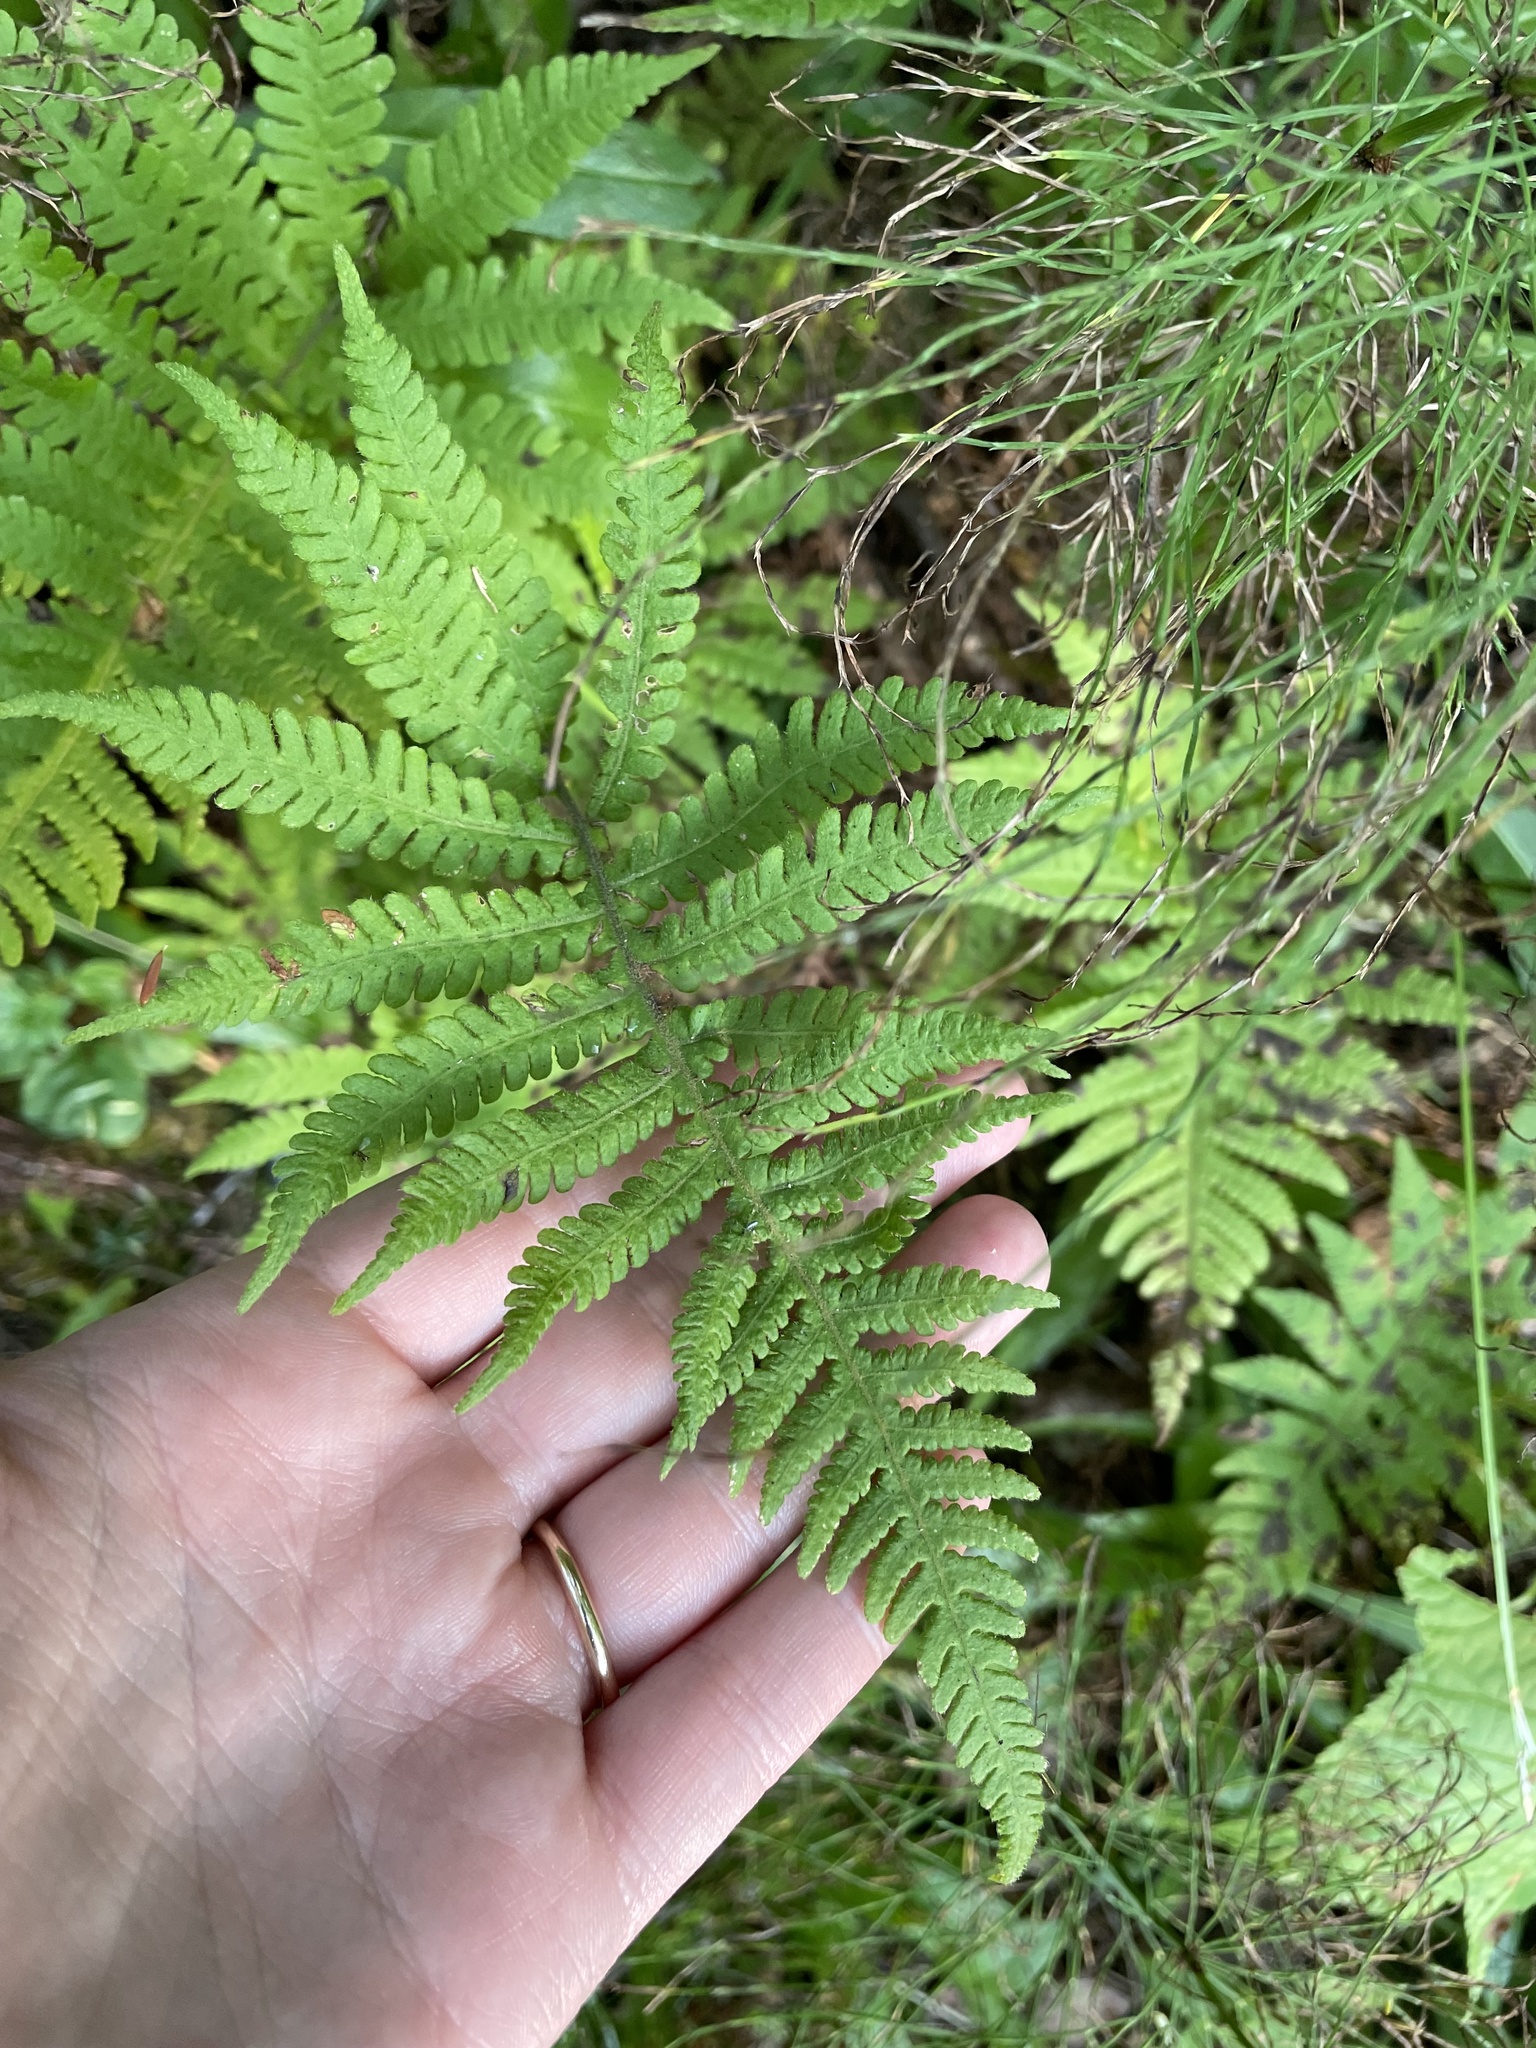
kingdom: Plantae
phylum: Tracheophyta
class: Polypodiopsida
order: Polypodiales
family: Thelypteridaceae
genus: Phegopteris
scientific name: Phegopteris connectilis
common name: Beech fern
